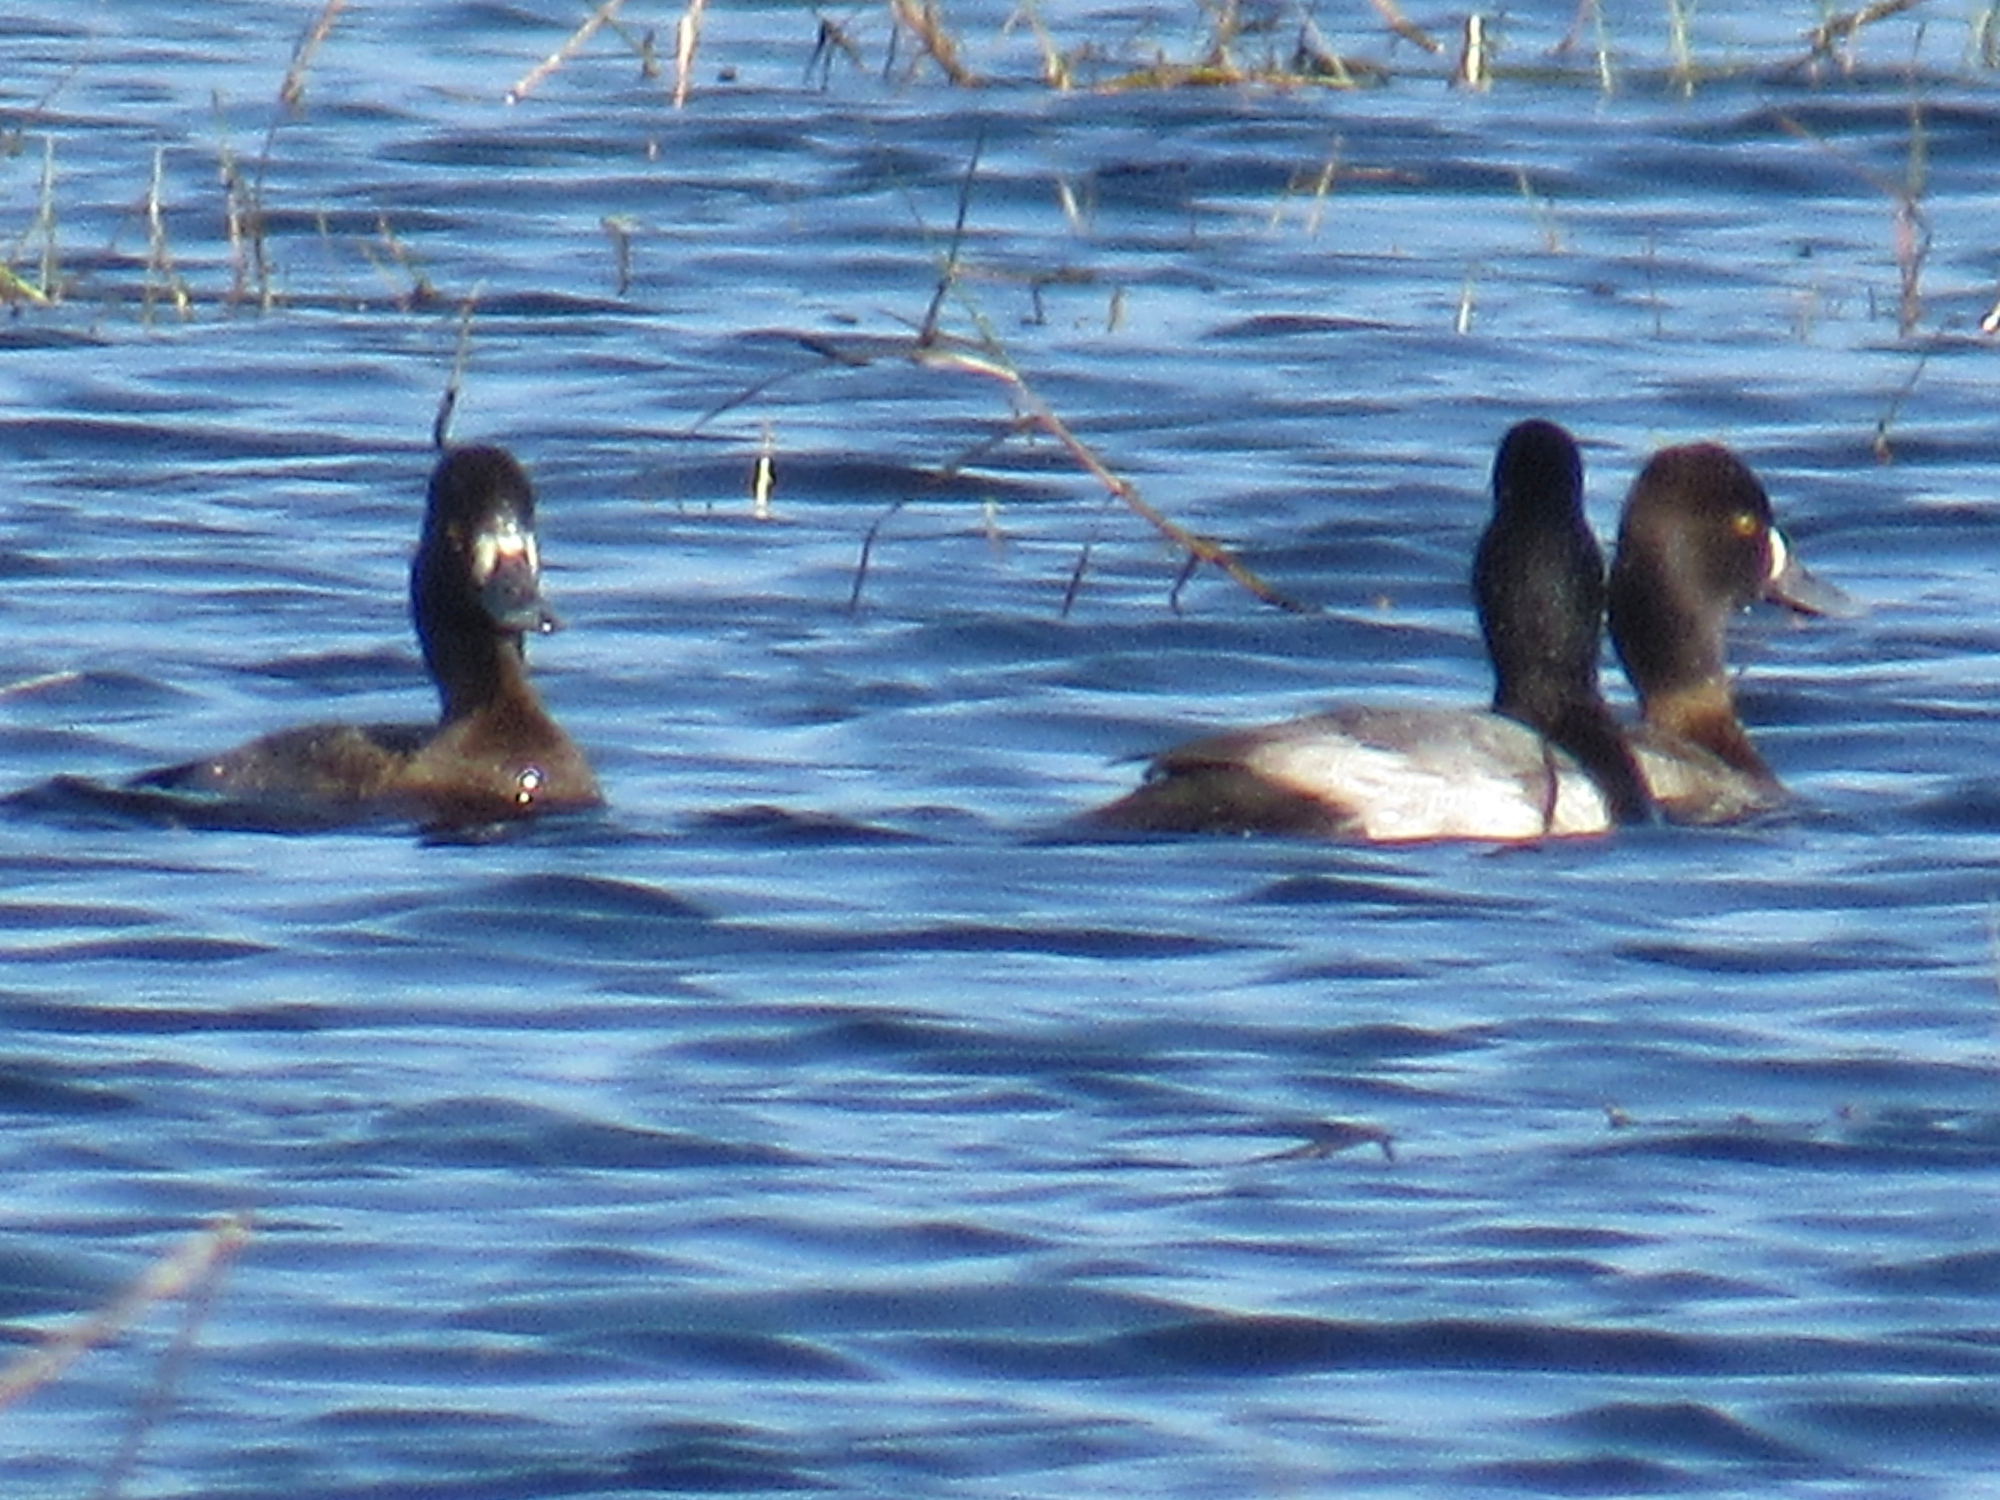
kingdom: Animalia
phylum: Chordata
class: Aves
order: Anseriformes
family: Anatidae
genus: Aythya
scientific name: Aythya affinis
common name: Lesser scaup
